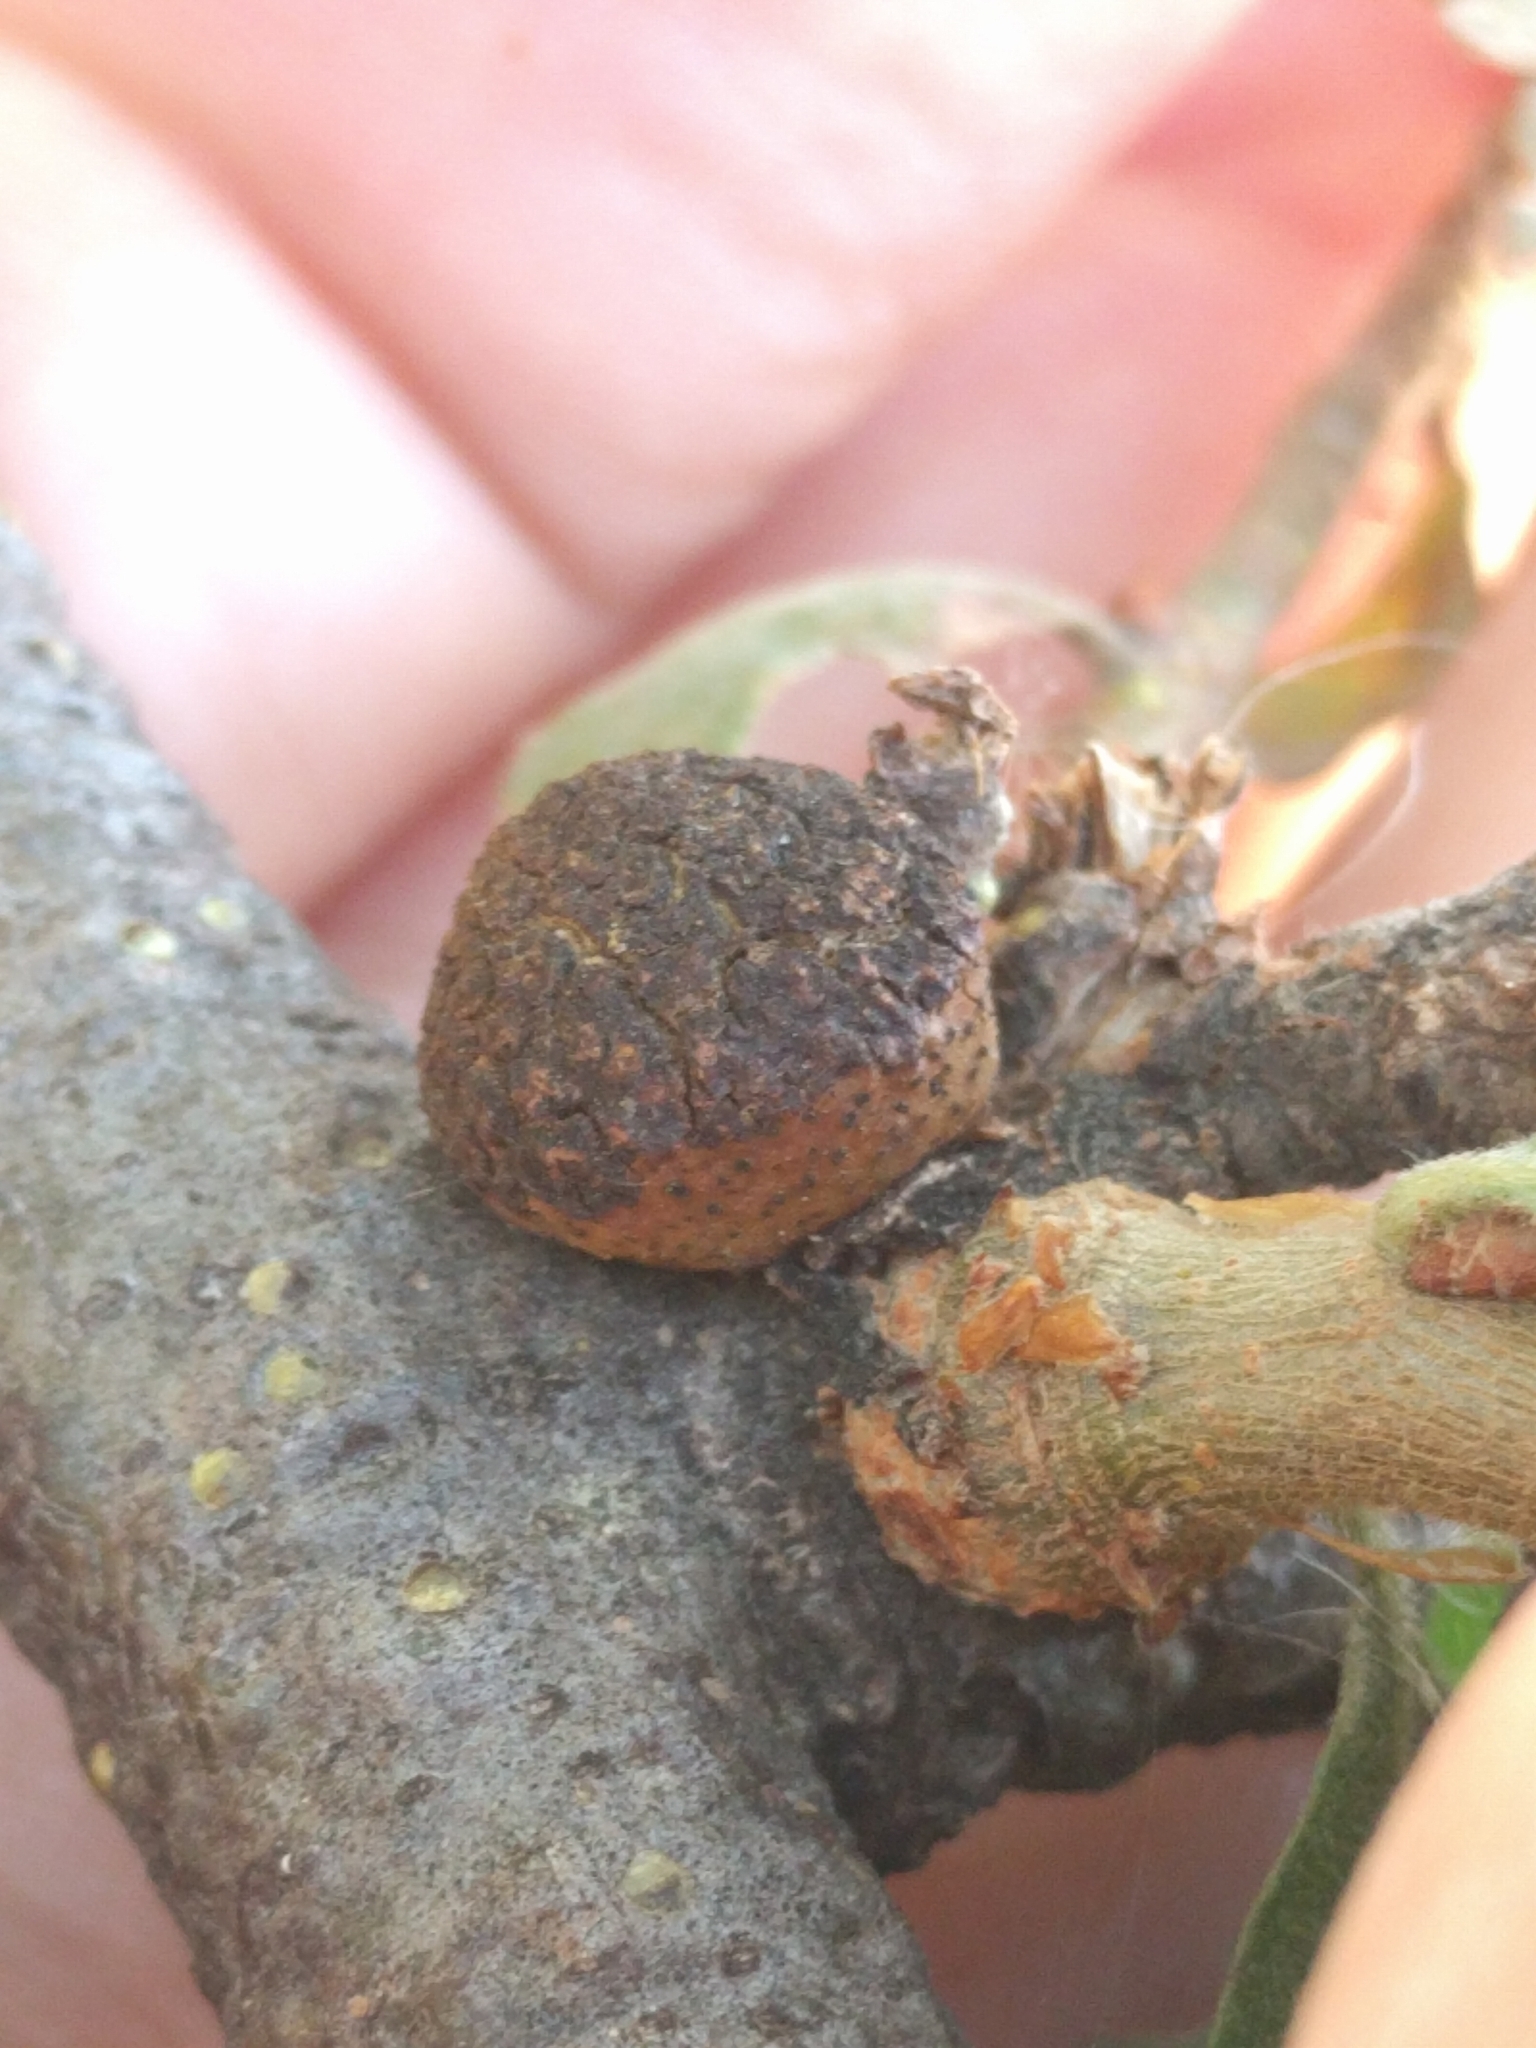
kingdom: Animalia
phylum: Arthropoda
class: Insecta
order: Hymenoptera
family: Cynipidae
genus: Disholcaspis
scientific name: Disholcaspis
